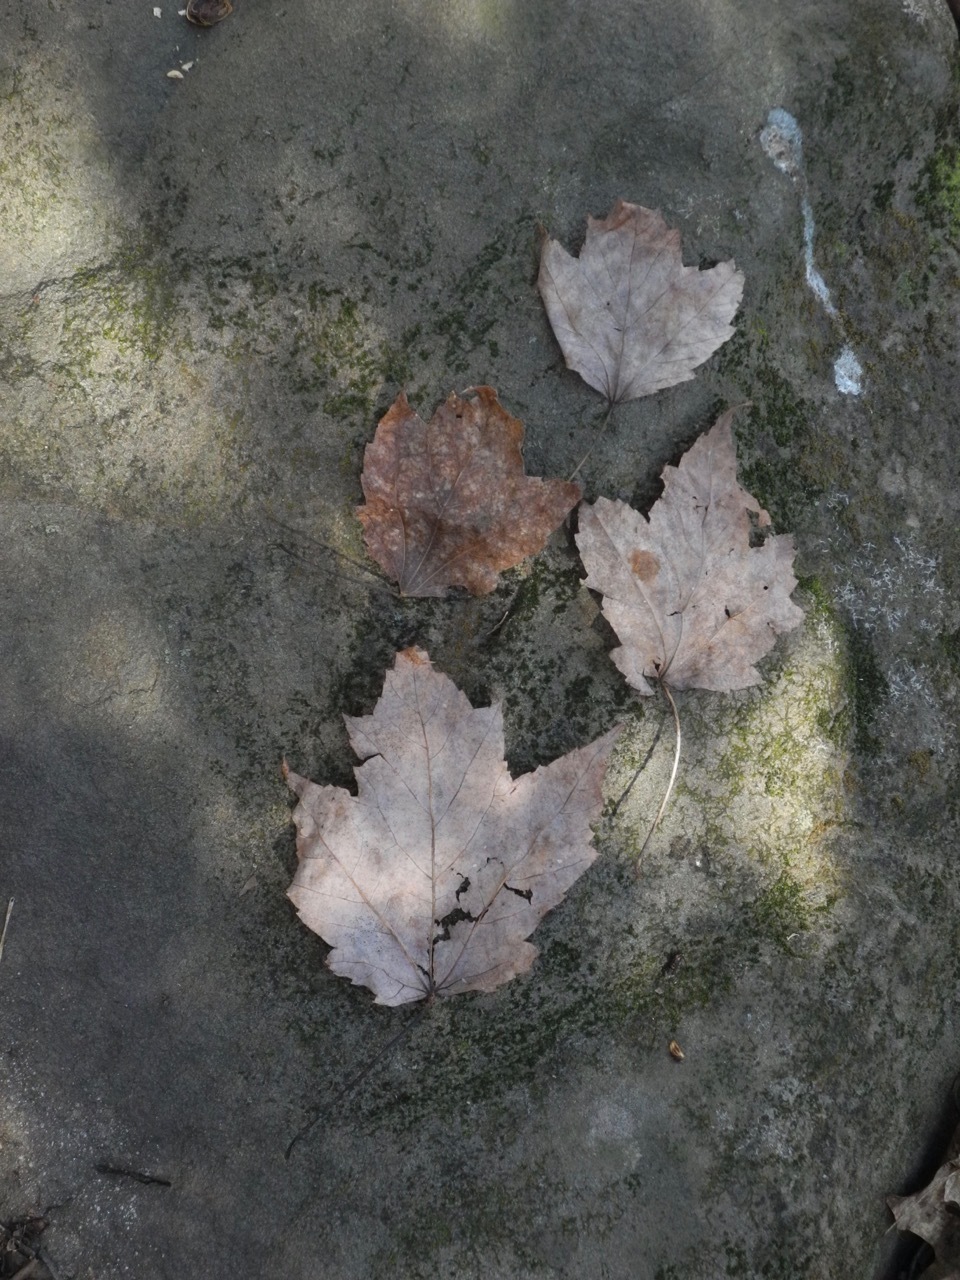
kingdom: Plantae
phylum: Tracheophyta
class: Magnoliopsida
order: Sapindales
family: Sapindaceae
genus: Acer
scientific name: Acer freemanii
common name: Freeman maple
